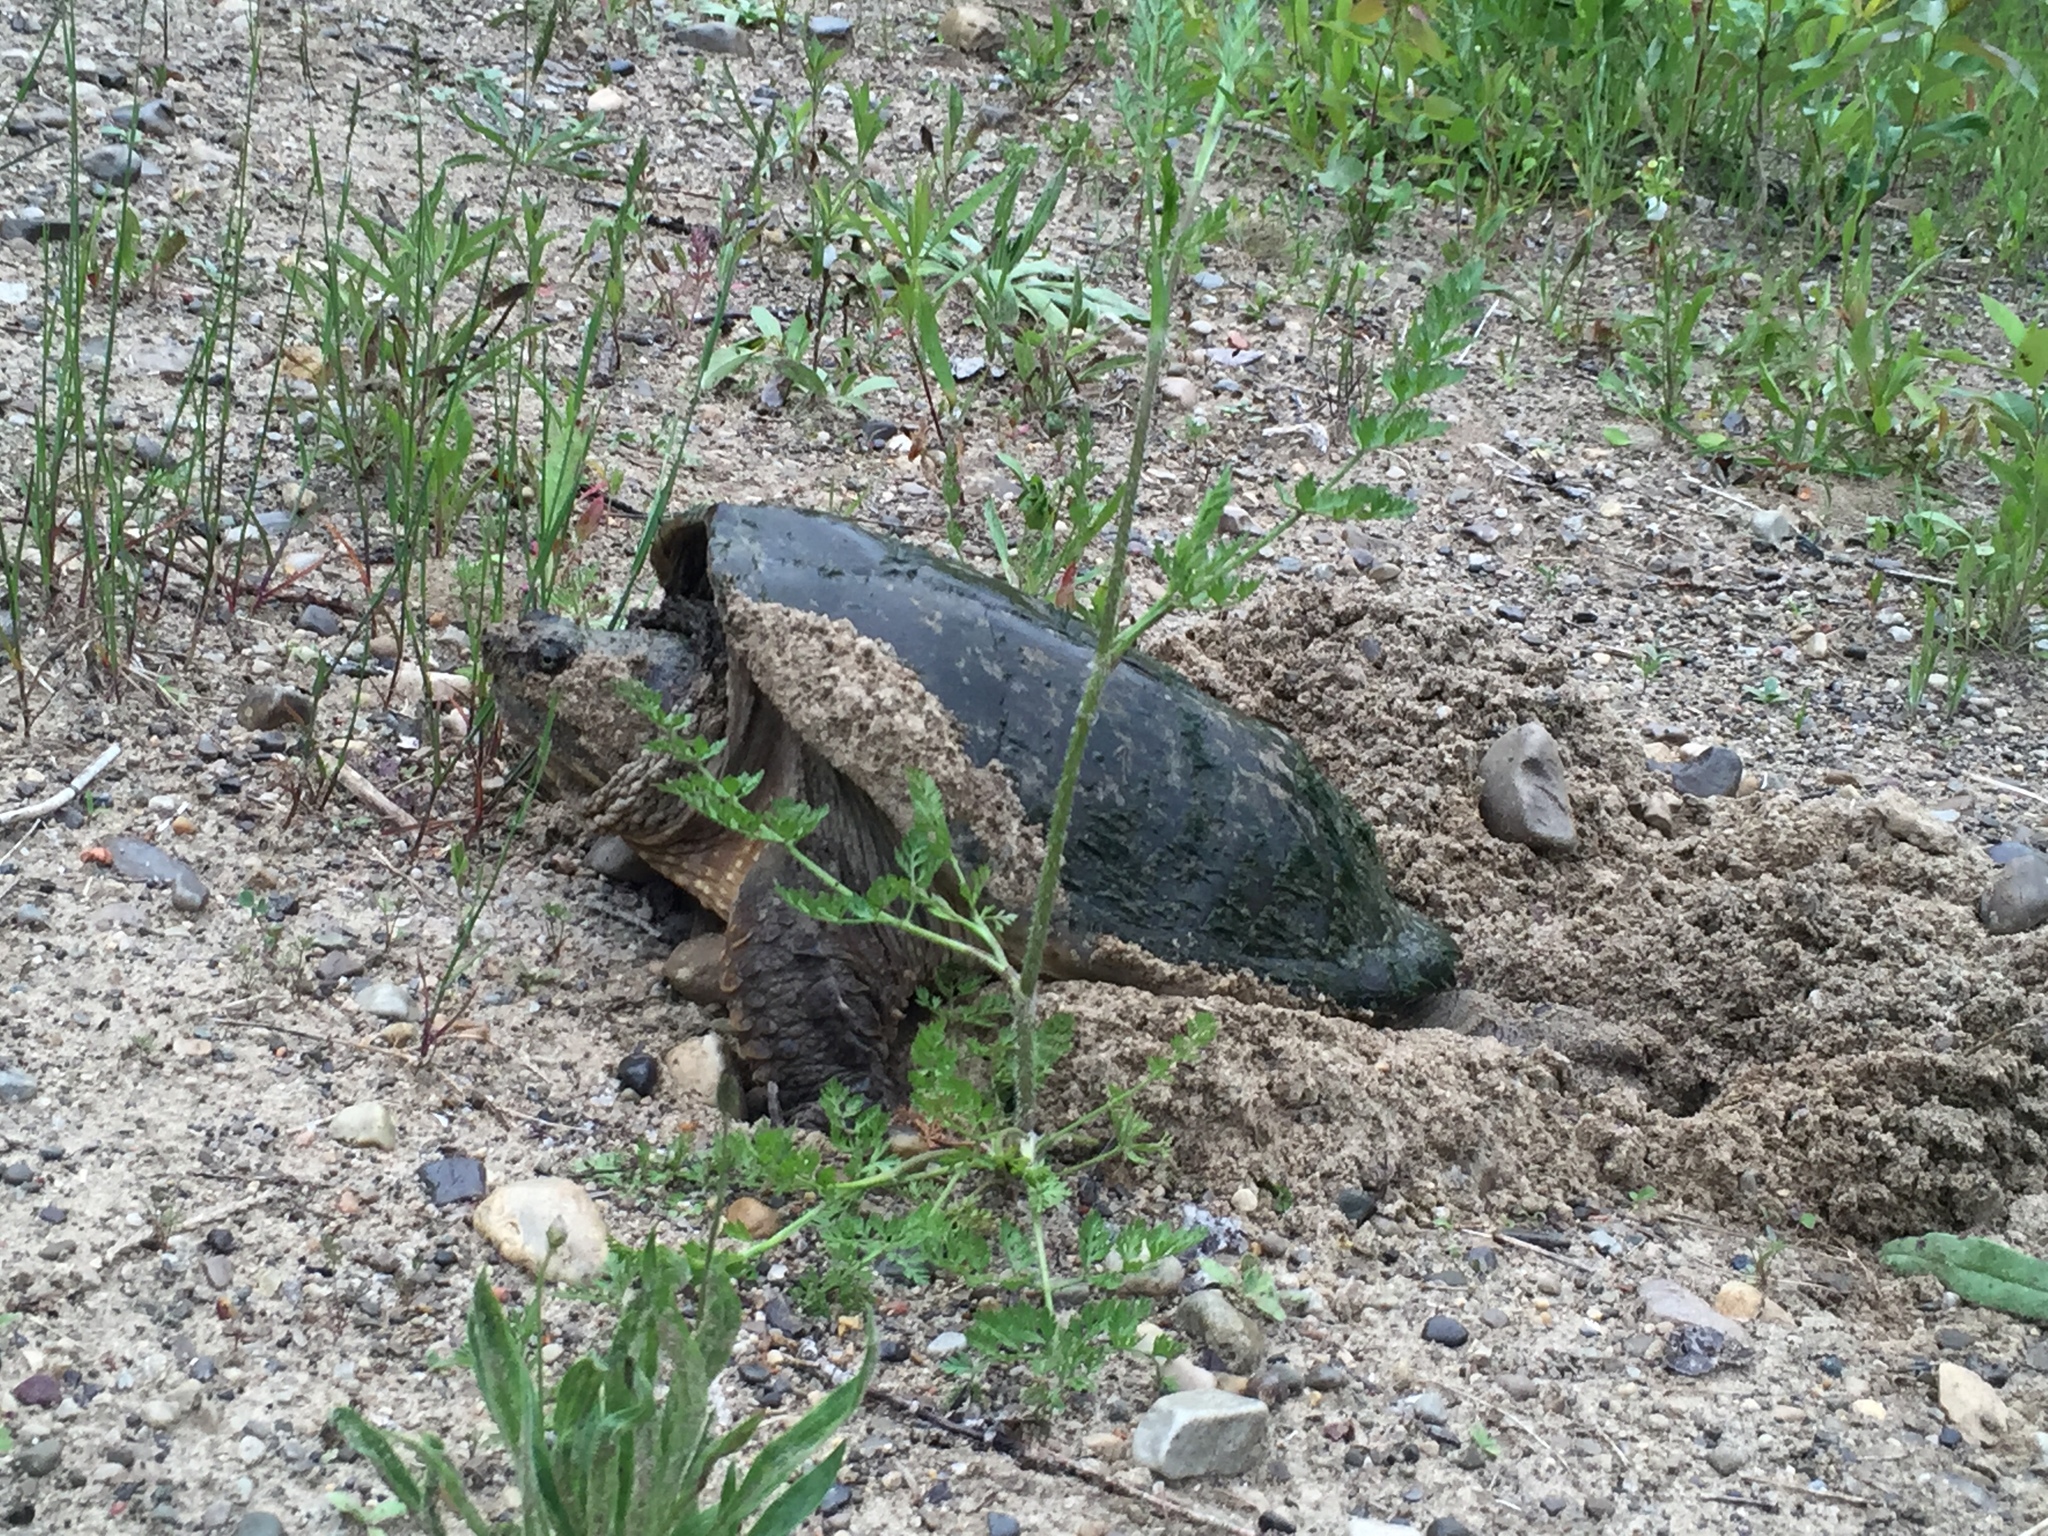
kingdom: Animalia
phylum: Chordata
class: Testudines
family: Chelydridae
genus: Chelydra
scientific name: Chelydra serpentina
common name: Common snapping turtle
